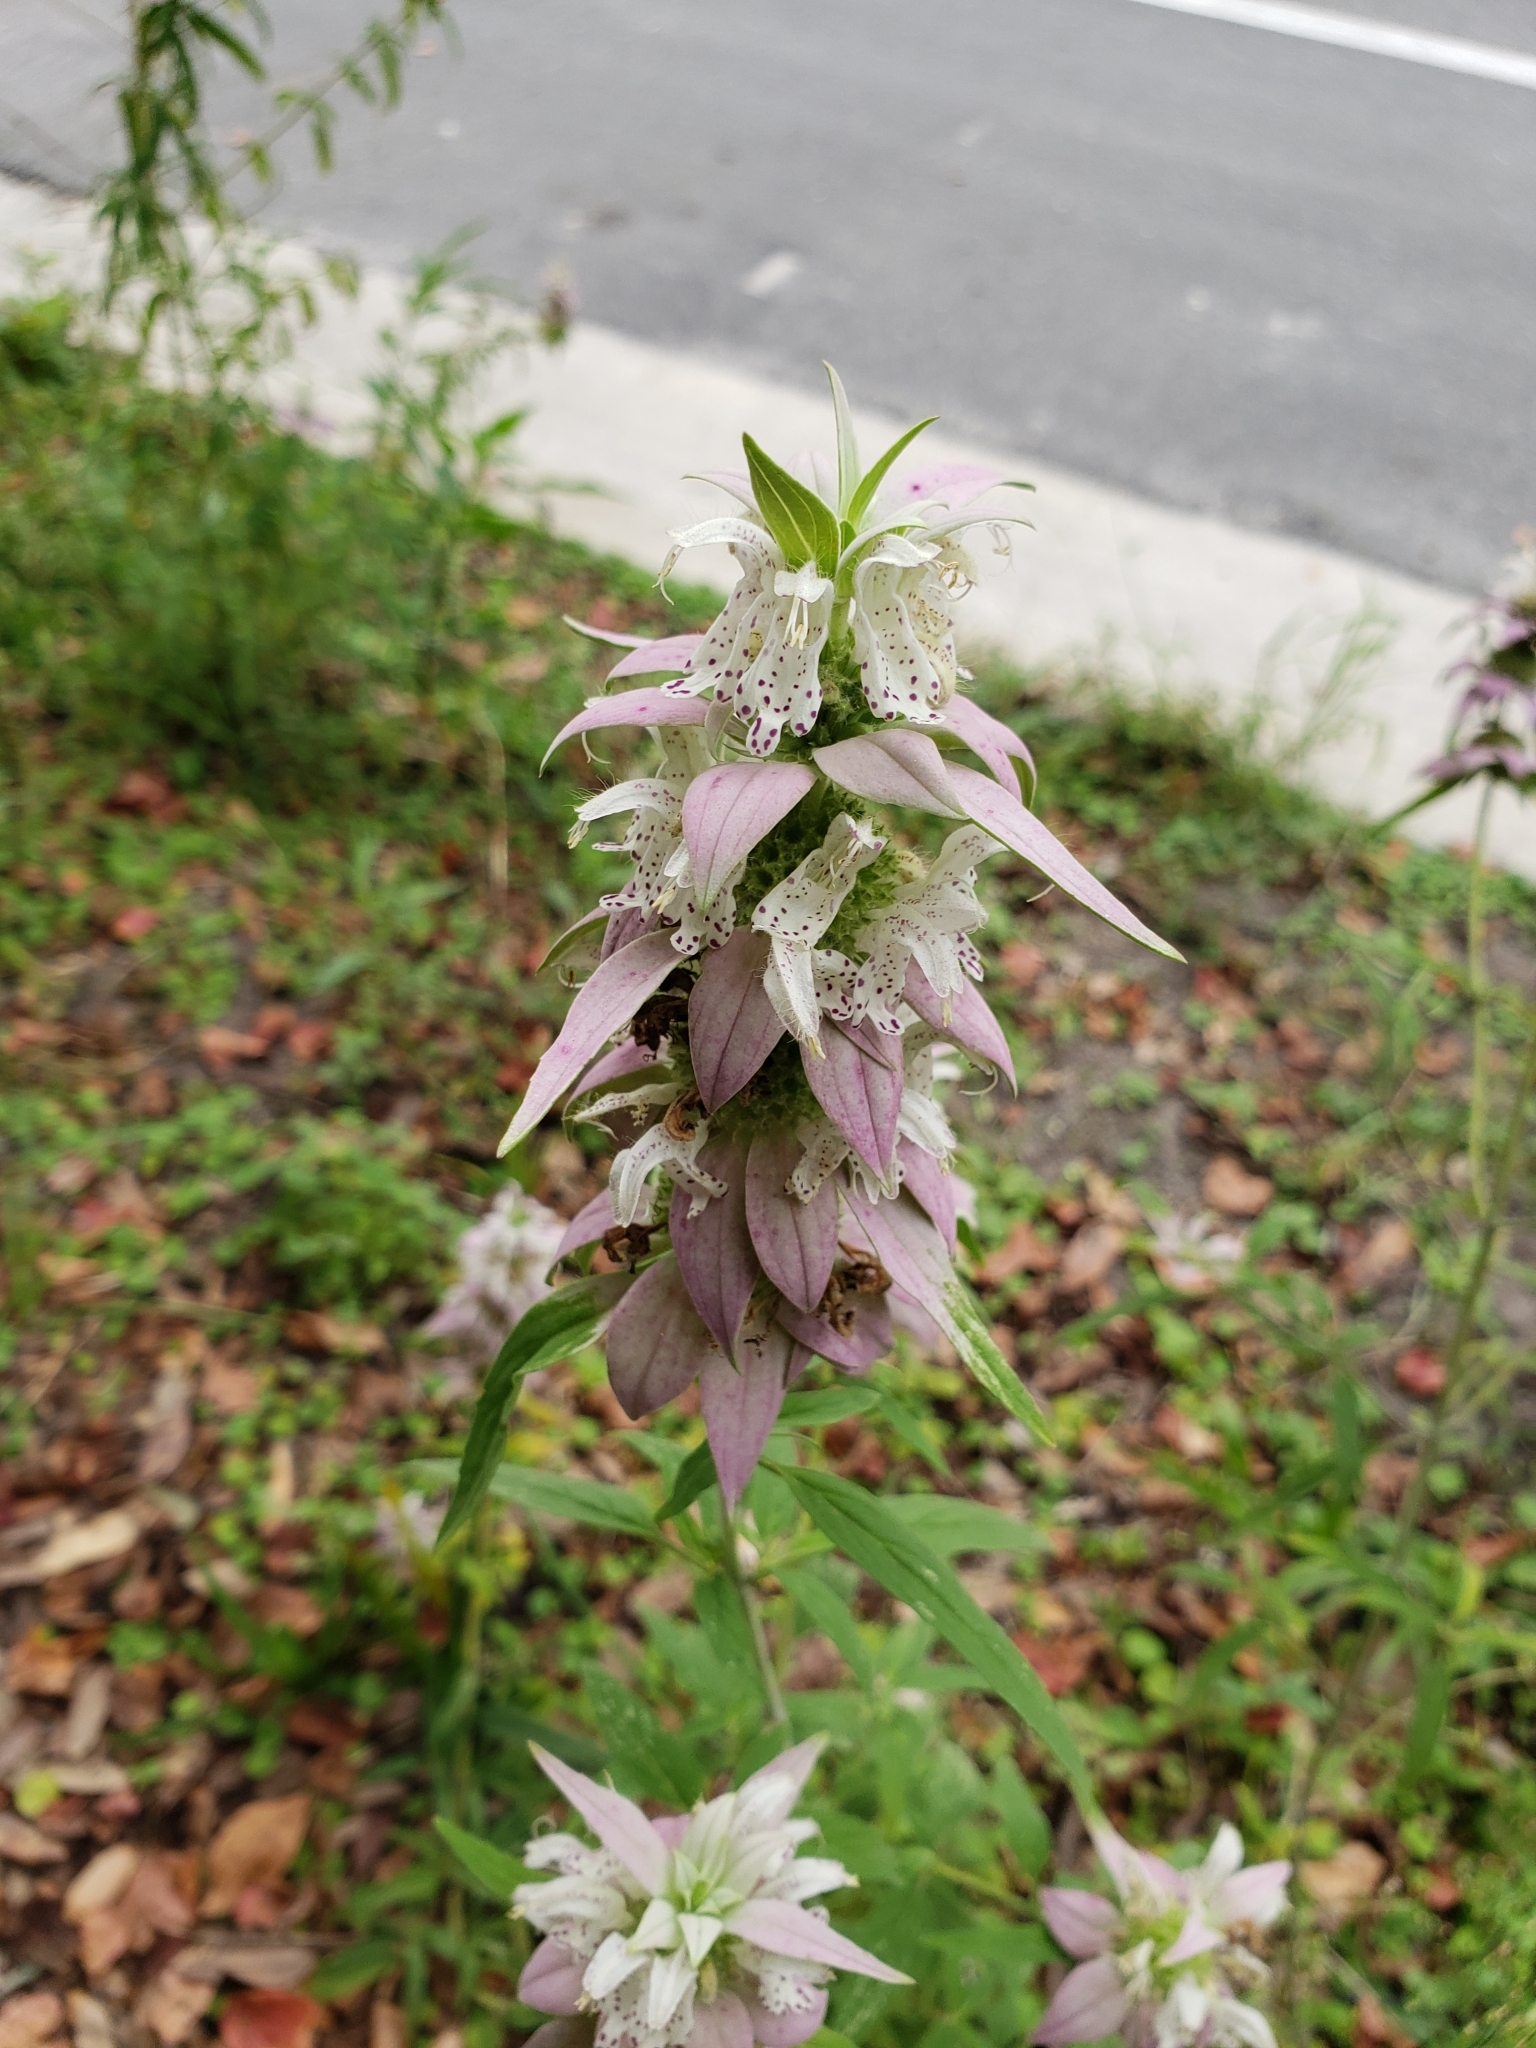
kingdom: Plantae
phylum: Tracheophyta
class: Magnoliopsida
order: Lamiales
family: Lamiaceae
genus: Monarda
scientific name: Monarda punctata
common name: Dotted monarda
